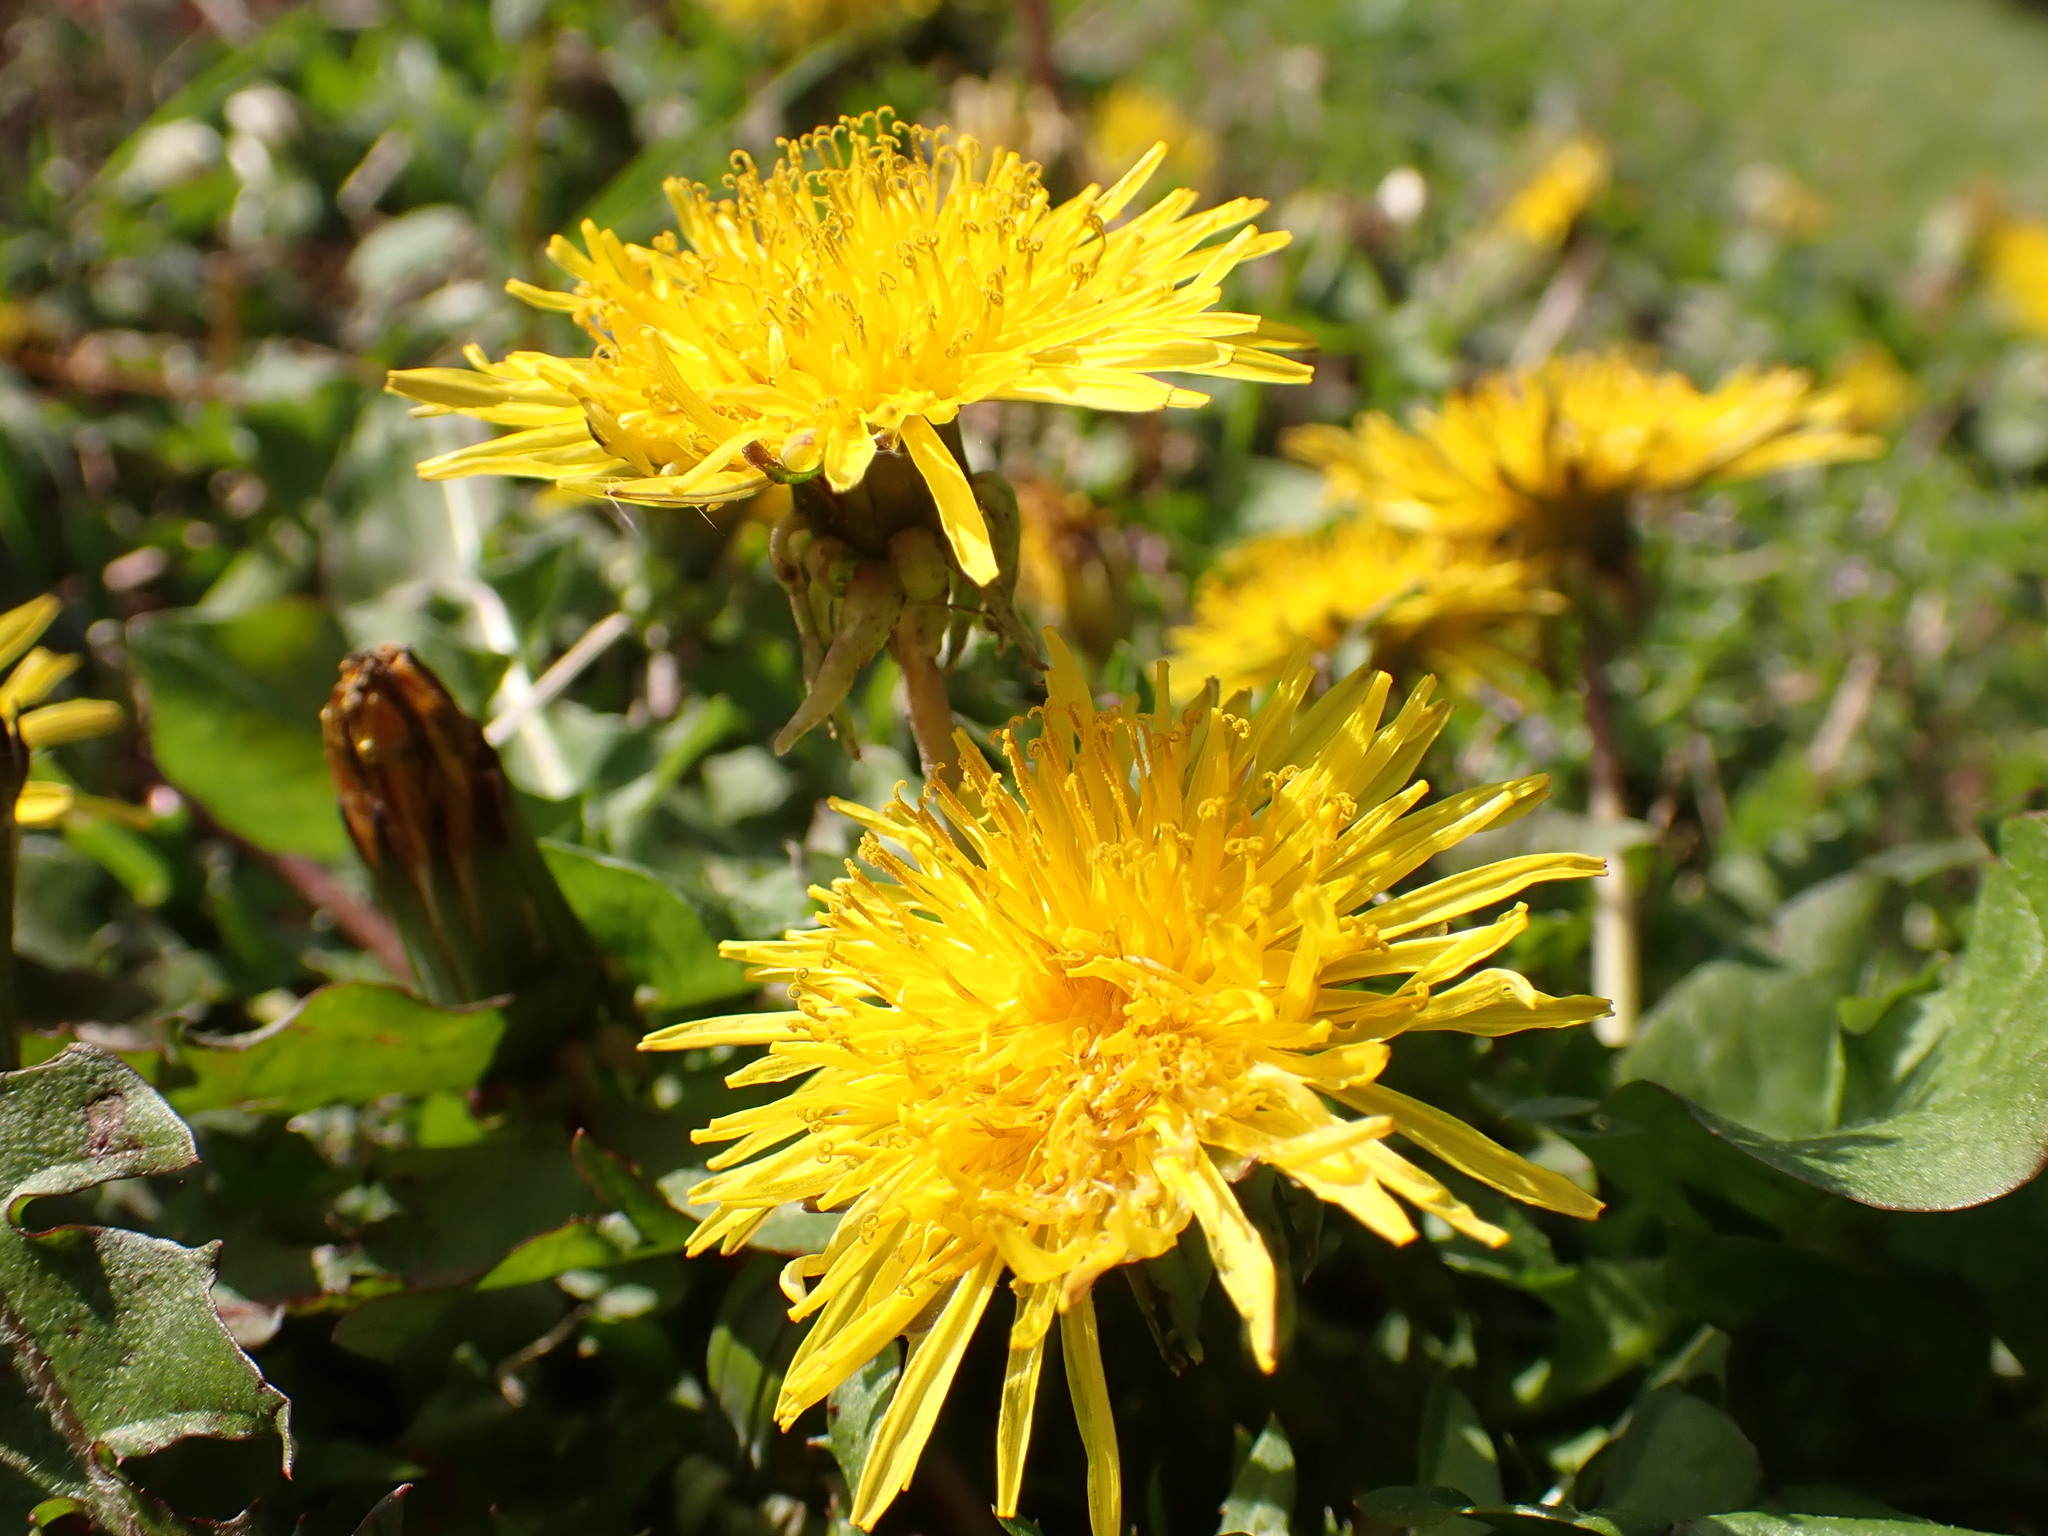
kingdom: Plantae
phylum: Tracheophyta
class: Magnoliopsida
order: Asterales
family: Asteraceae
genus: Taraxacum
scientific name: Taraxacum
